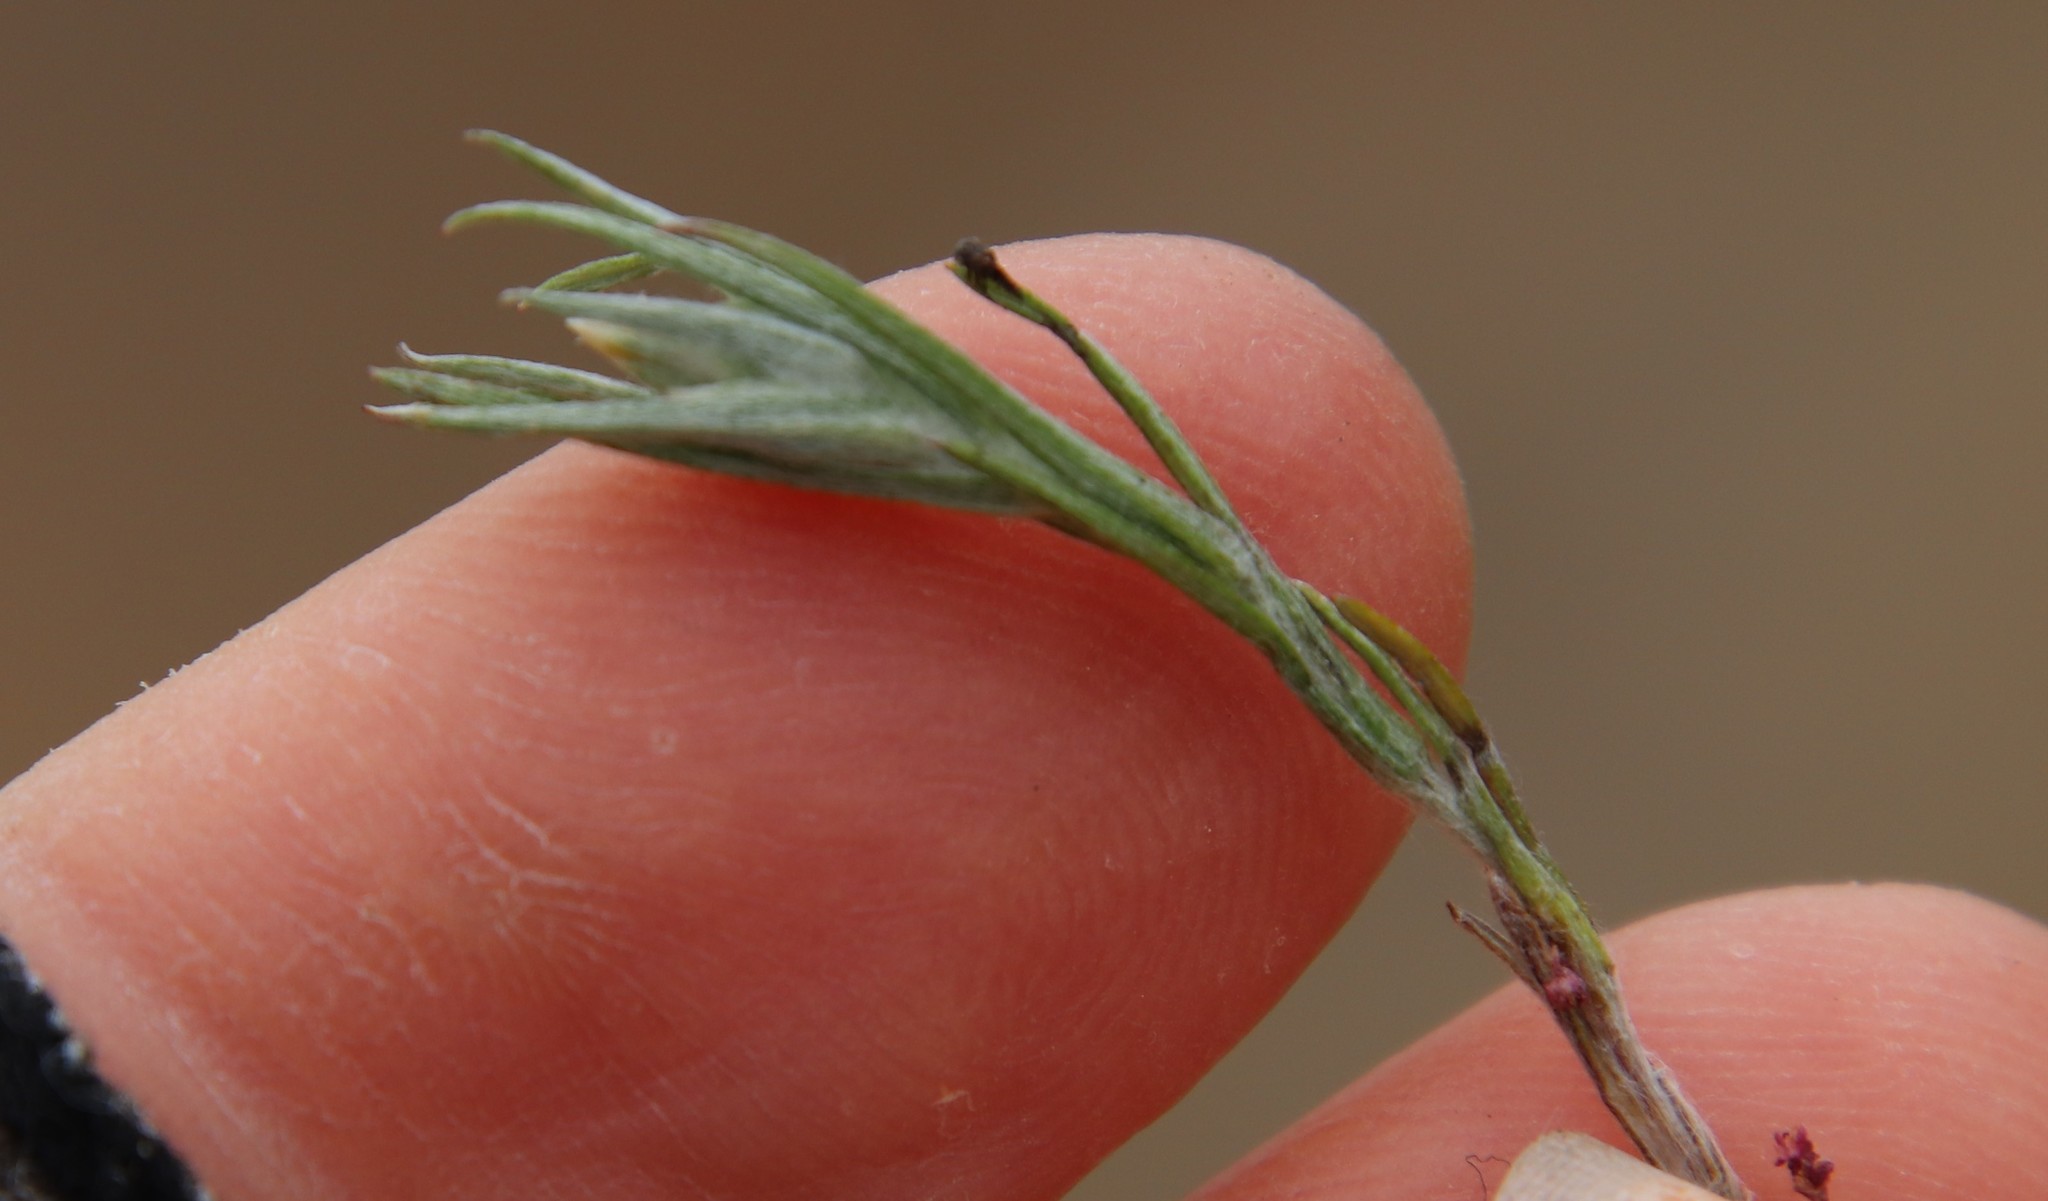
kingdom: Plantae
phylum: Tracheophyta
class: Magnoliopsida
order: Asterales
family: Asteraceae
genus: Logfia
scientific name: Logfia gallica
